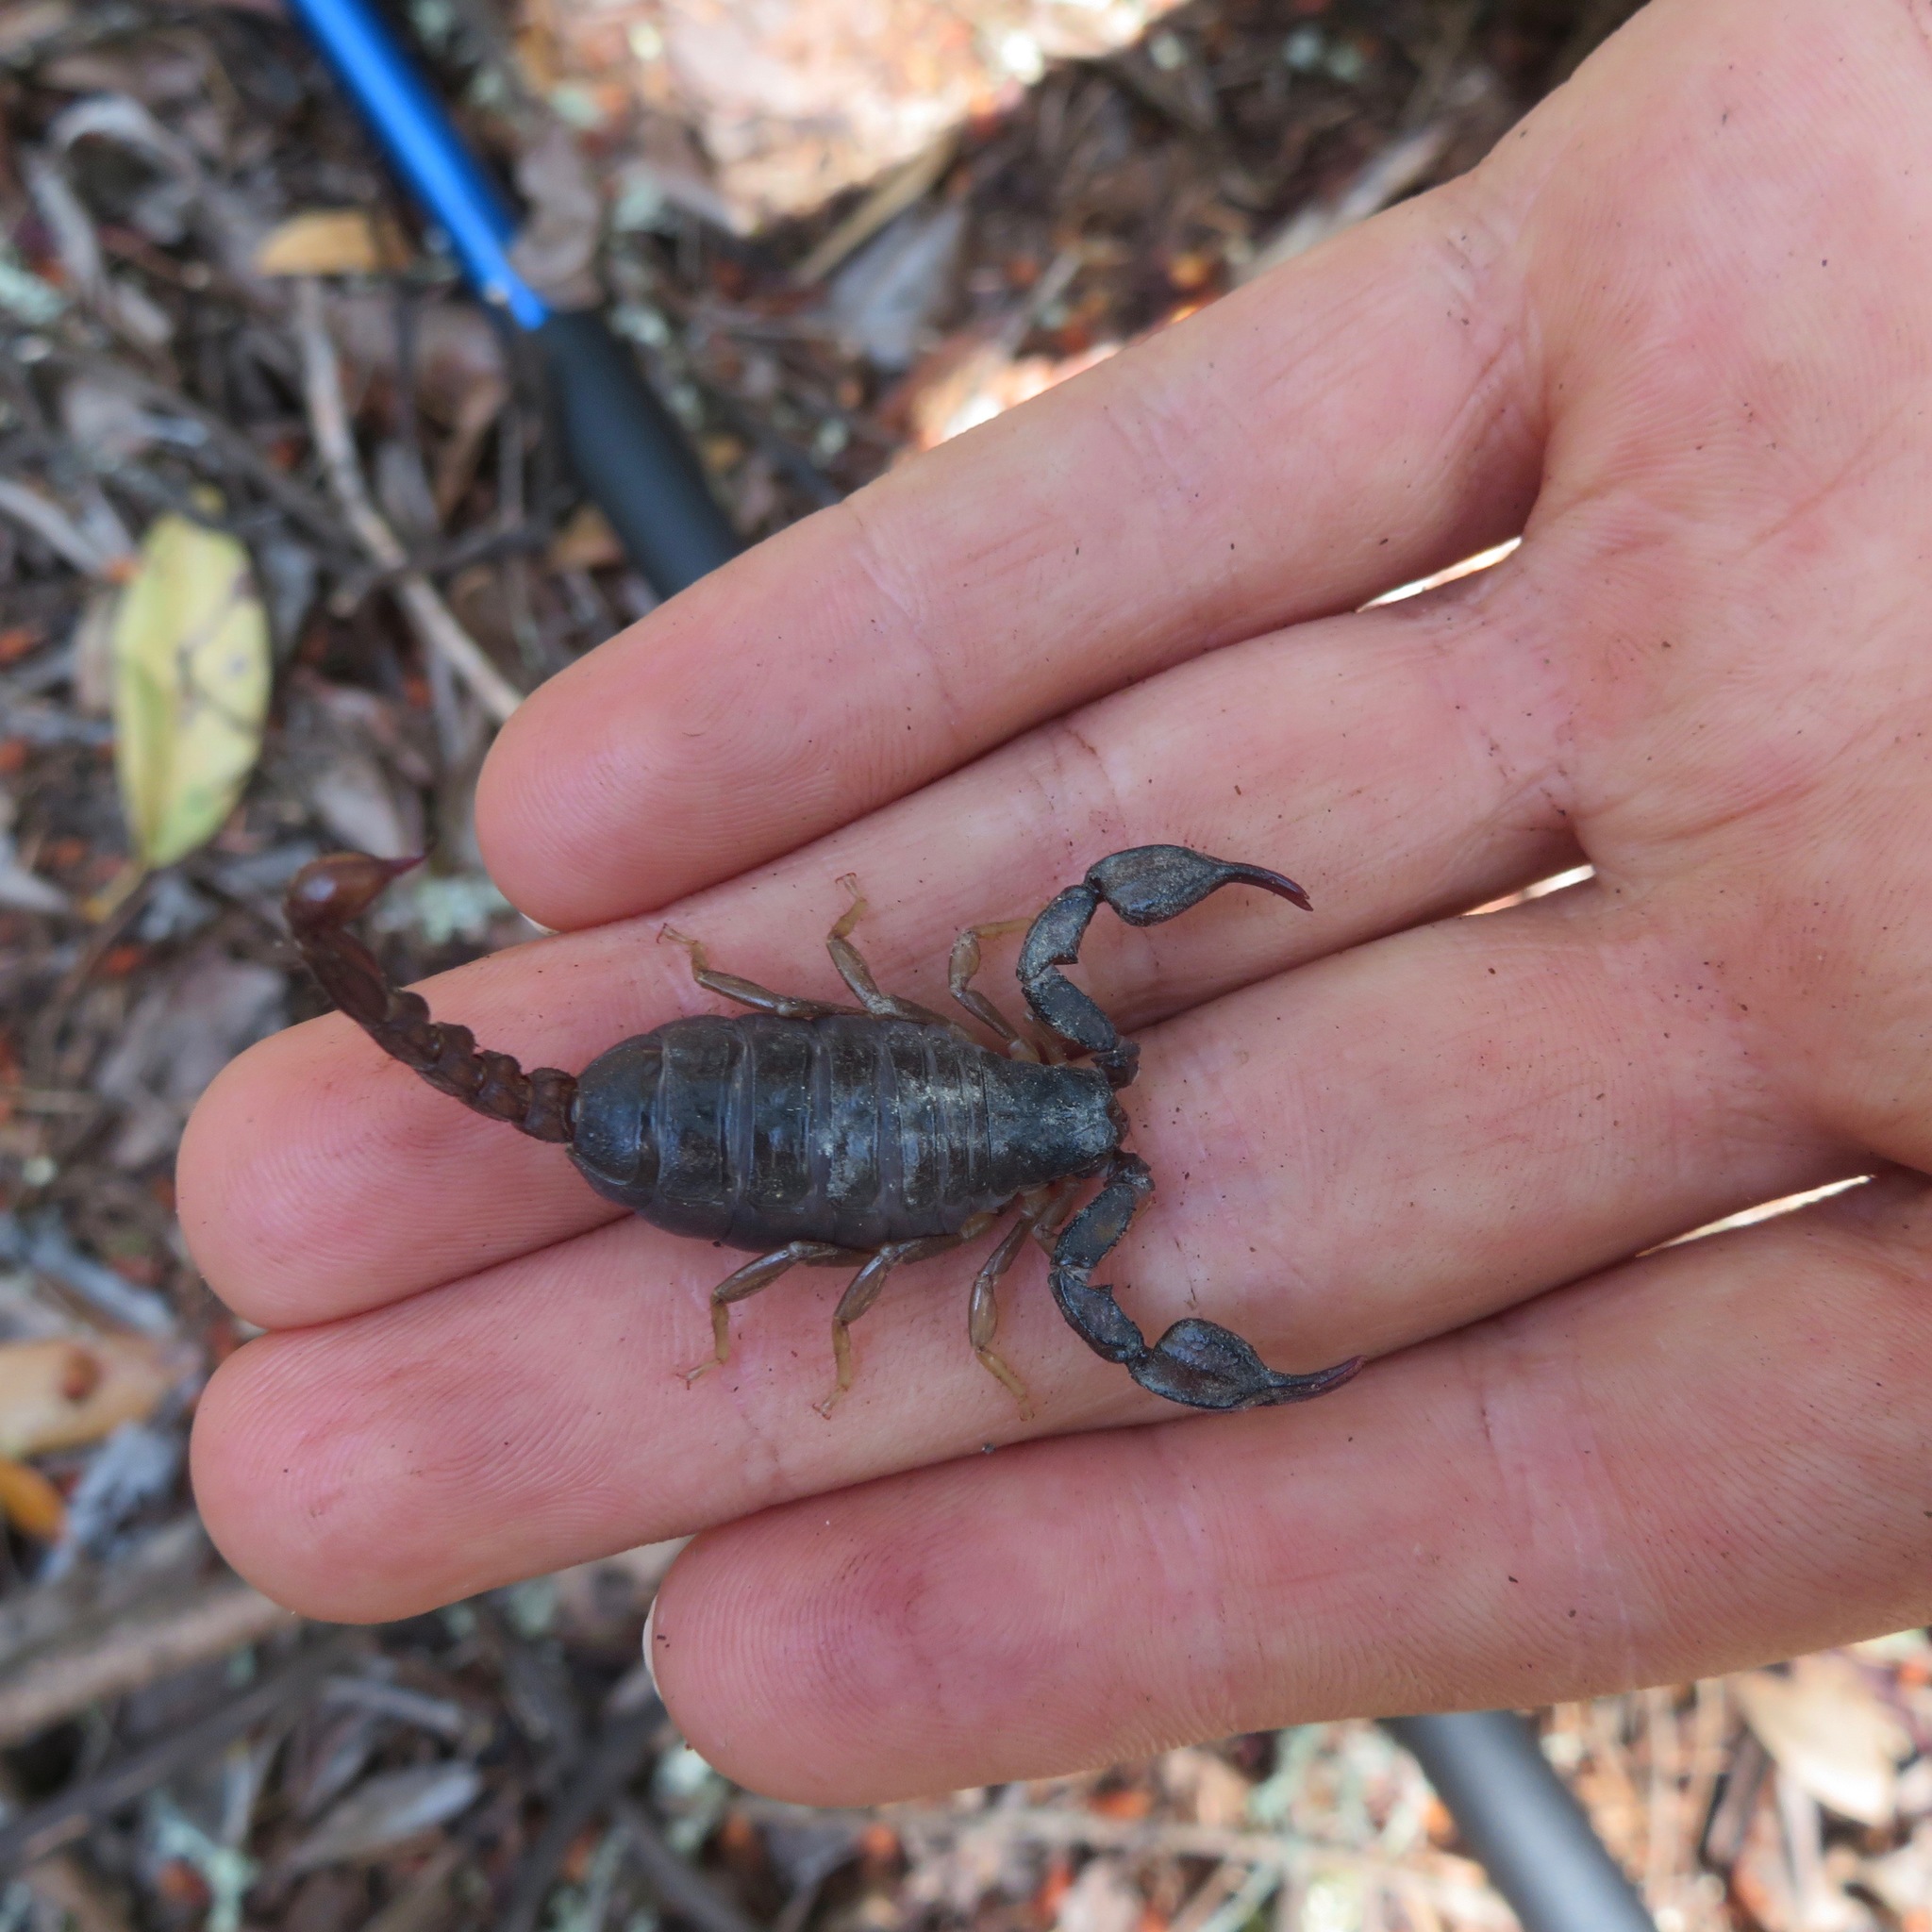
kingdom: Animalia
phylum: Arthropoda
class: Arachnida
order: Scorpiones
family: Chactidae
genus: Uroctonus
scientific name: Uroctonus mordax
